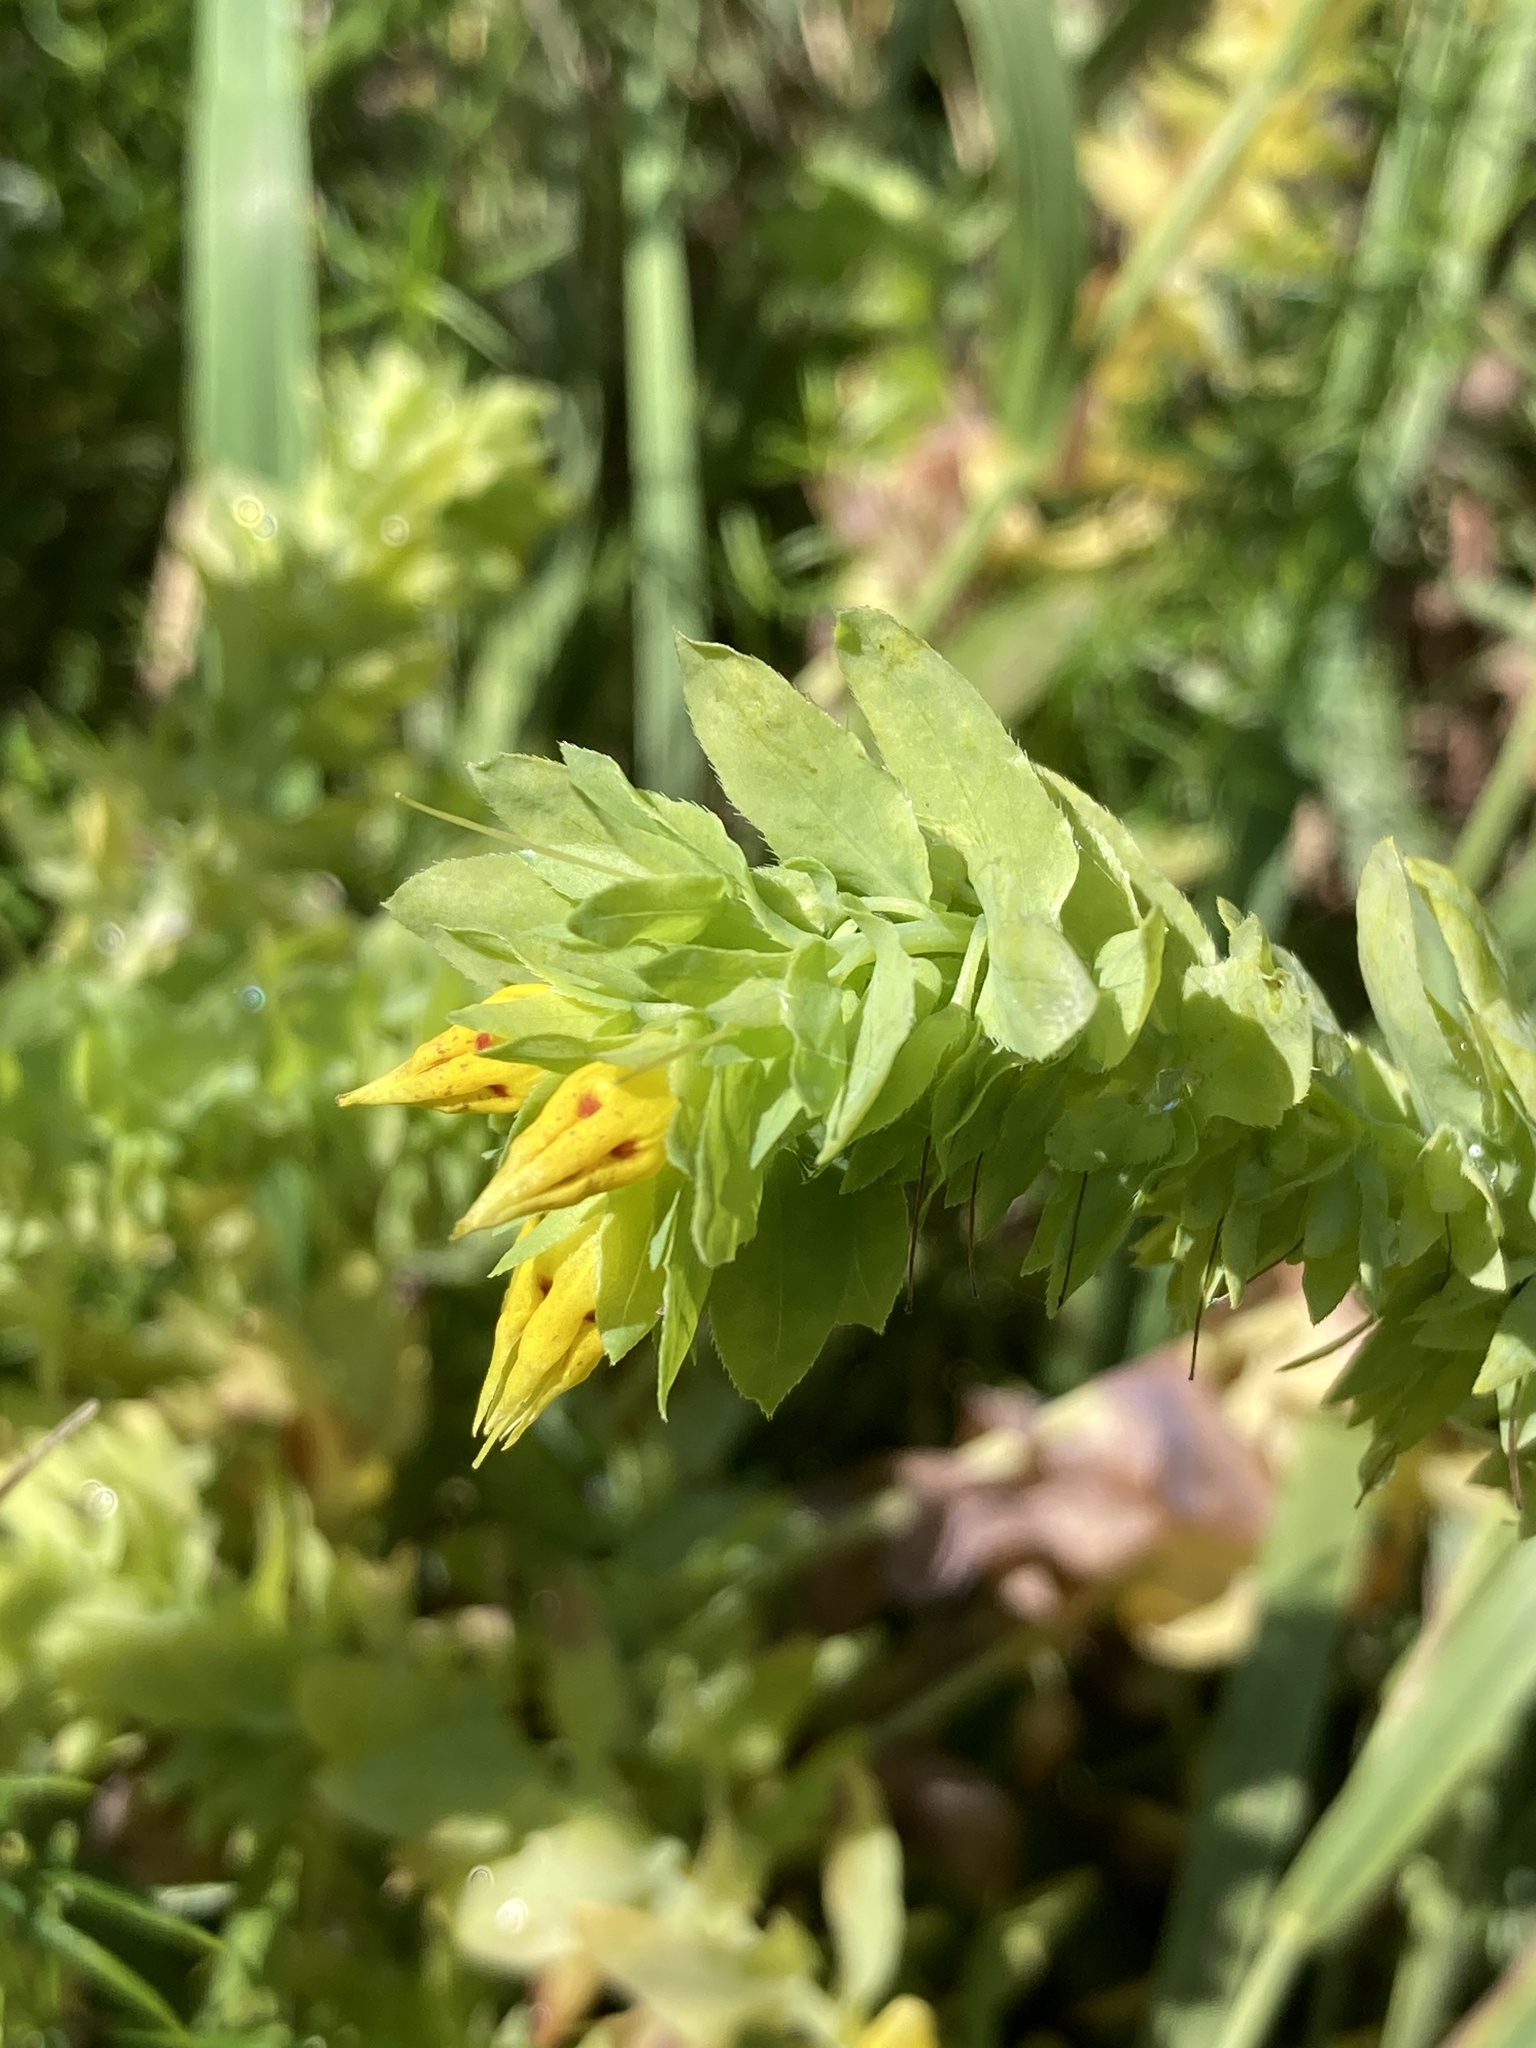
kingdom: Plantae
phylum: Tracheophyta
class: Magnoliopsida
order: Boraginales
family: Boraginaceae
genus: Cerinthe
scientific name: Cerinthe minor
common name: Lesser honeywort
